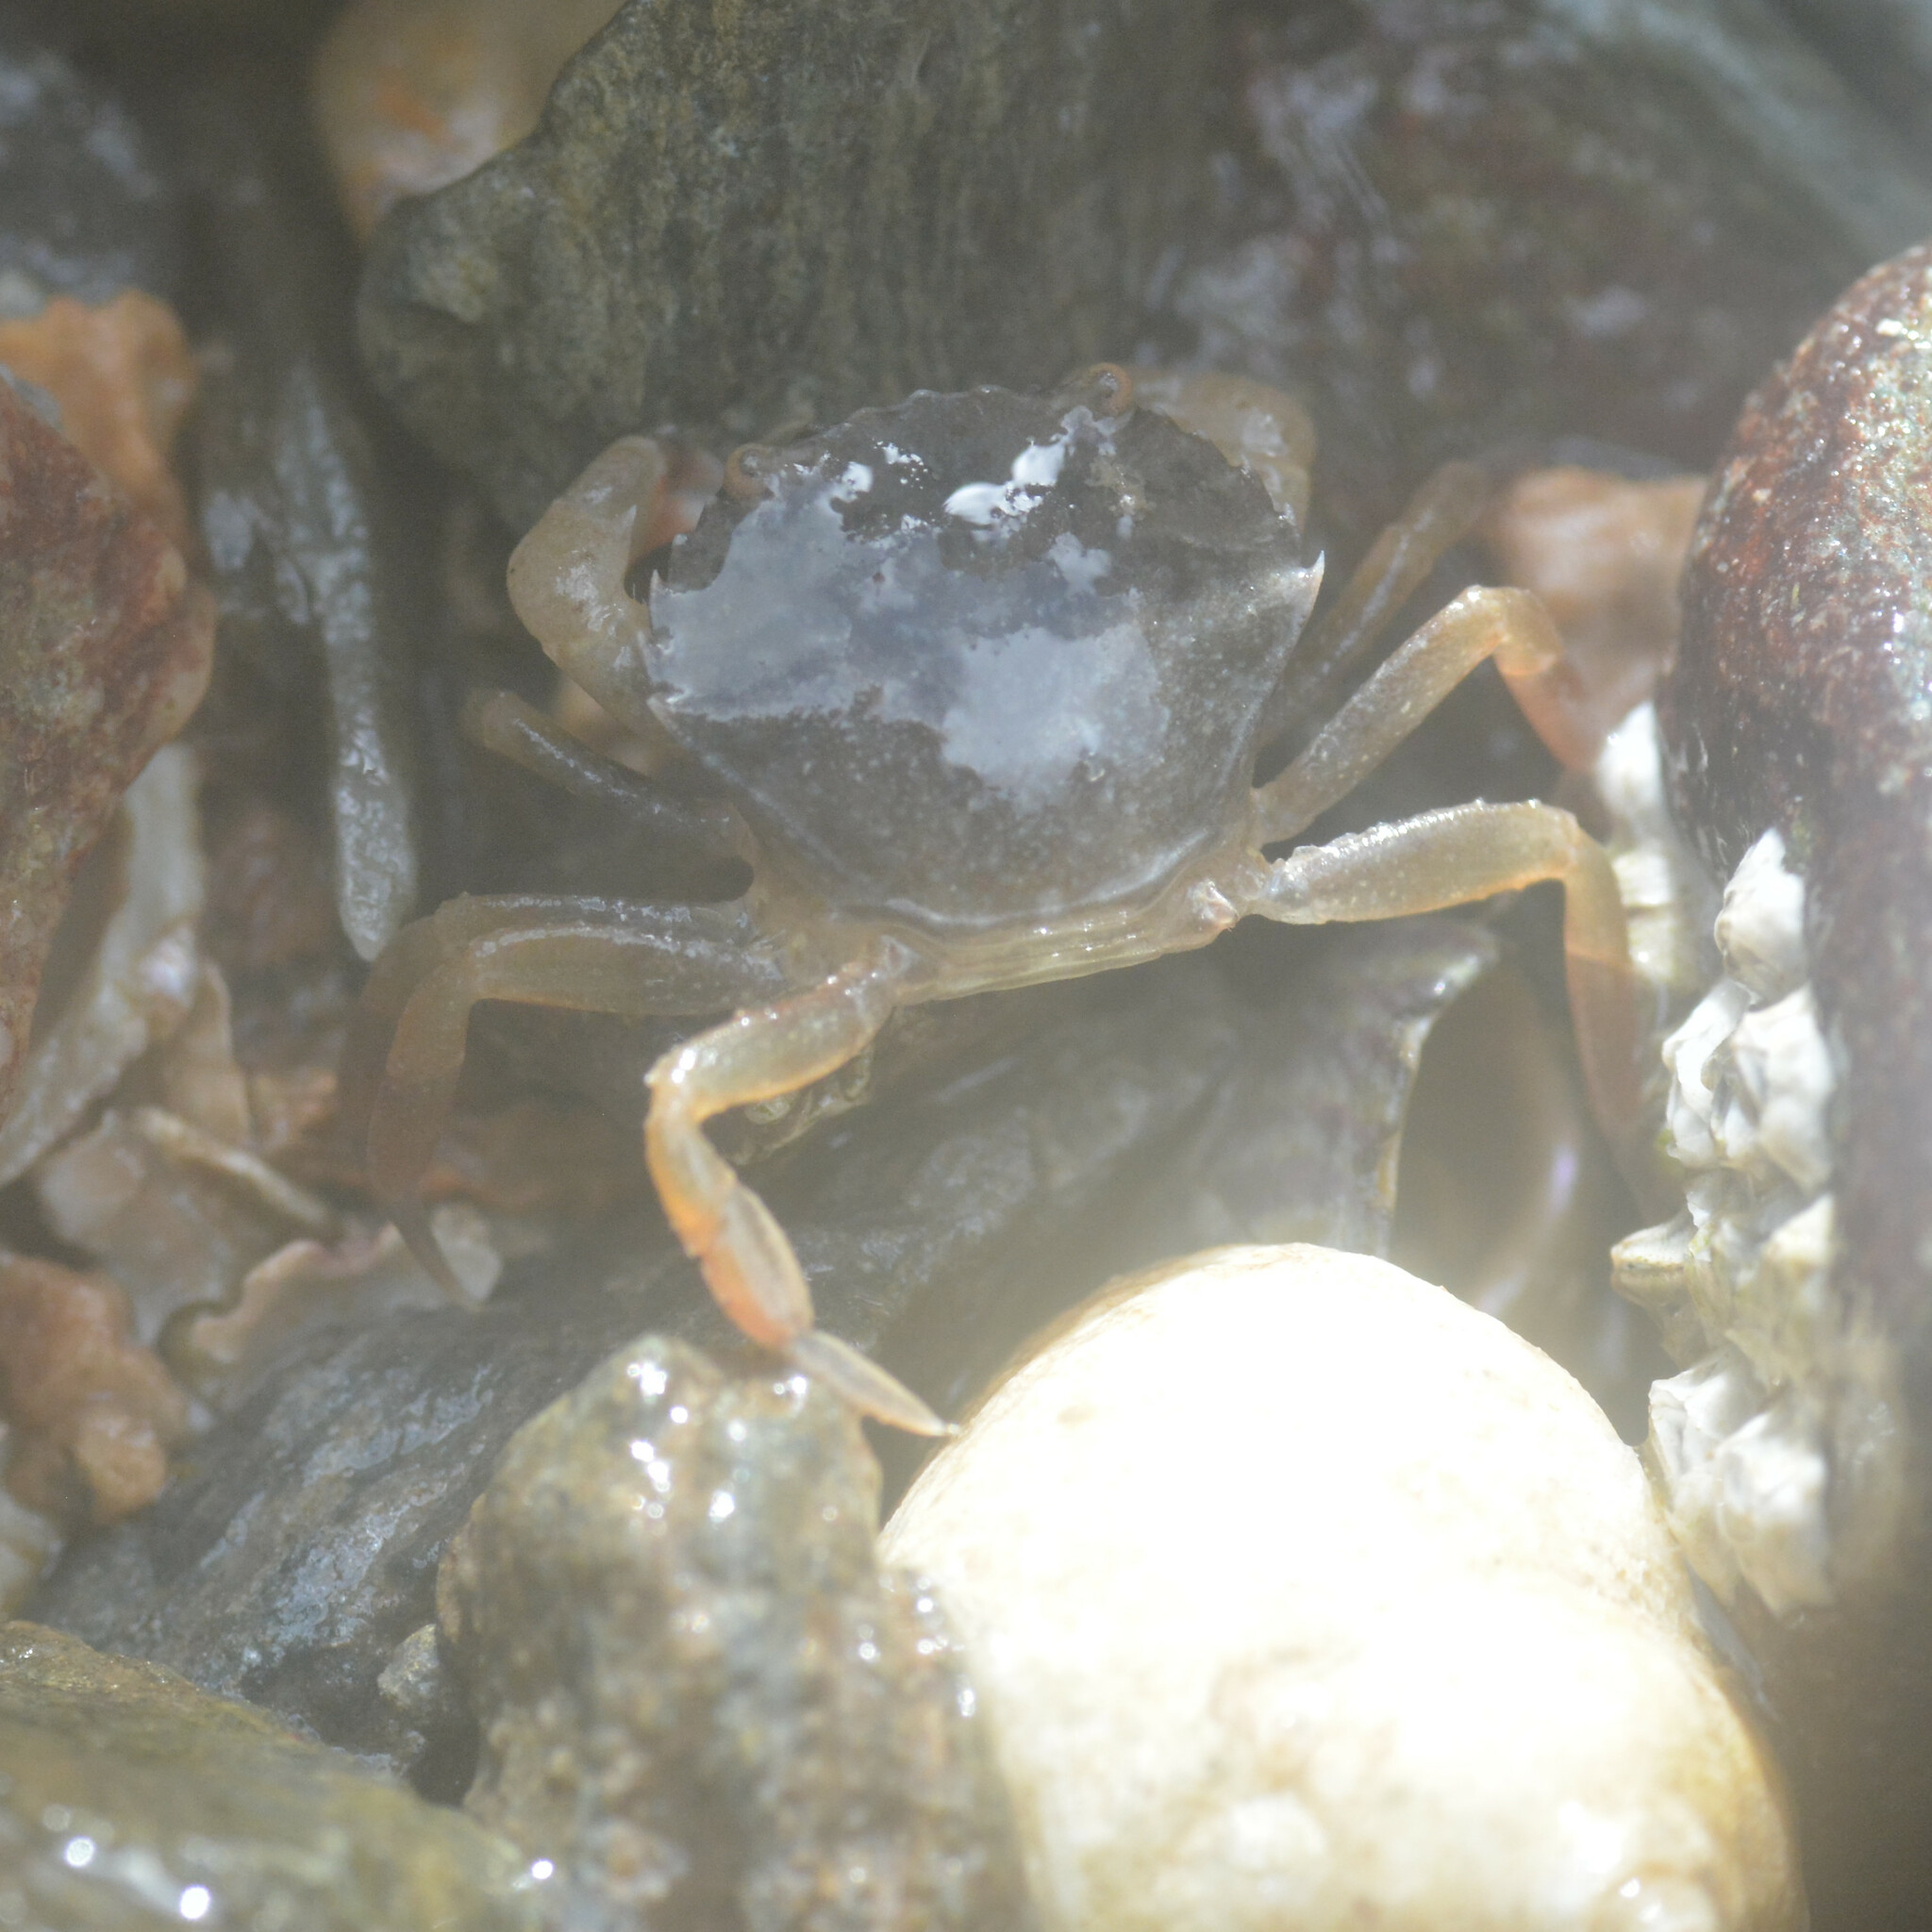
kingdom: Animalia
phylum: Arthropoda
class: Malacostraca
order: Decapoda
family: Carcinidae
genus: Carcinus
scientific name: Carcinus maenas
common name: European green crab
